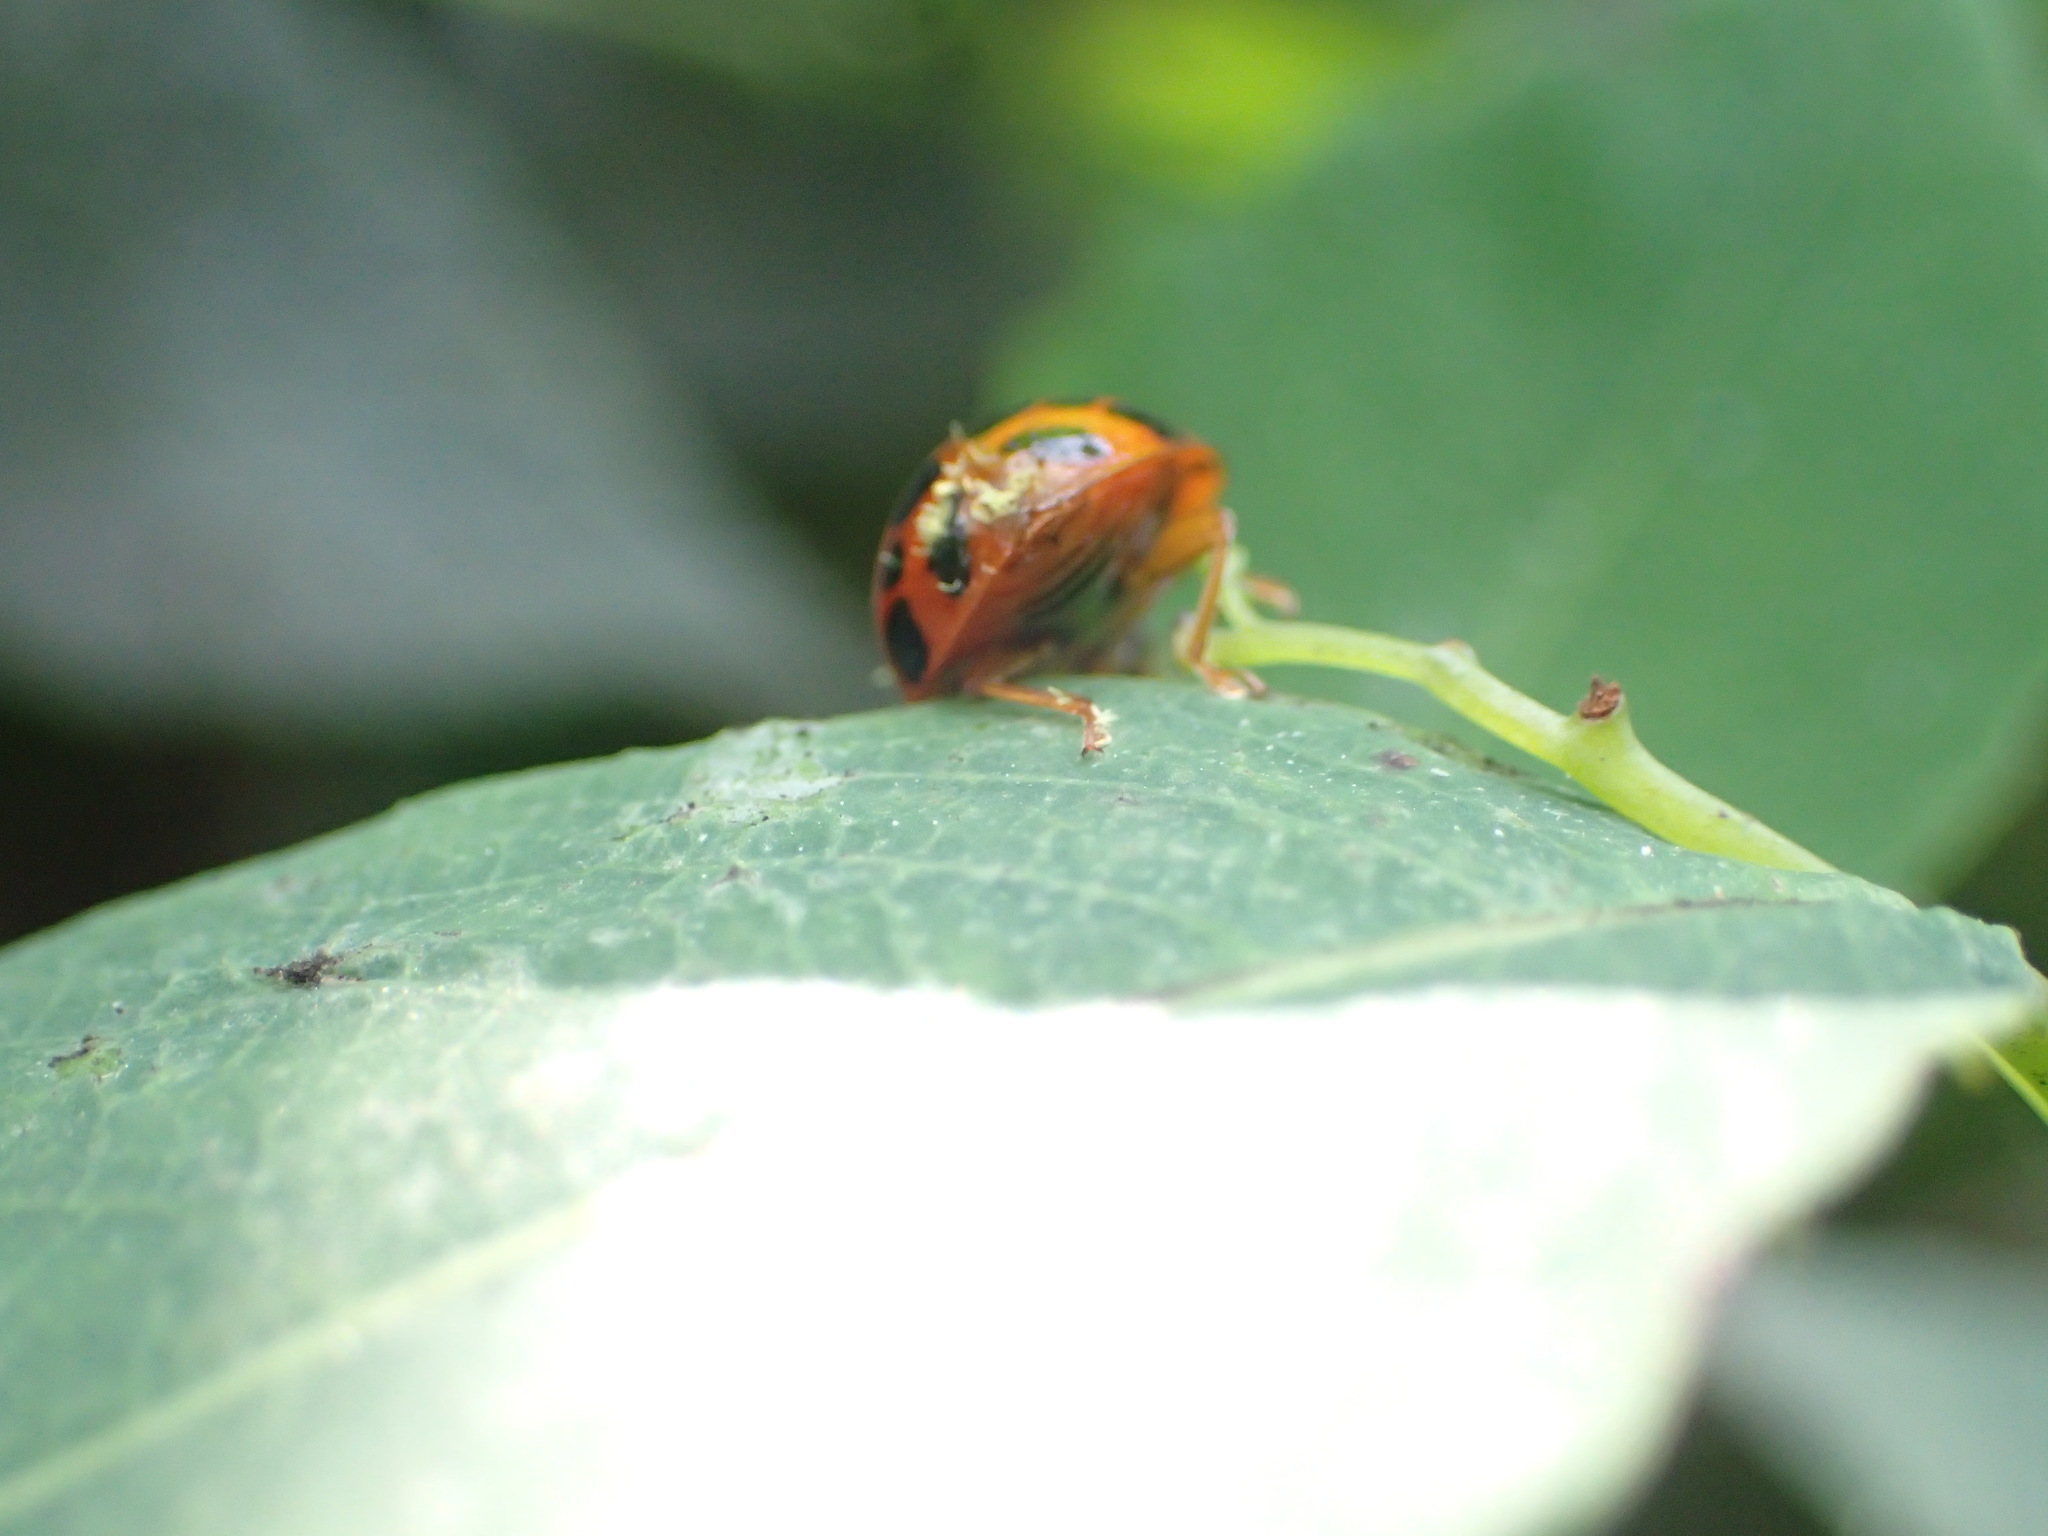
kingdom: Animalia
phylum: Arthropoda
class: Insecta
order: Coleoptera
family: Coccinellidae
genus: Harmonia
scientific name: Harmonia axyridis
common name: Harlequin ladybird
